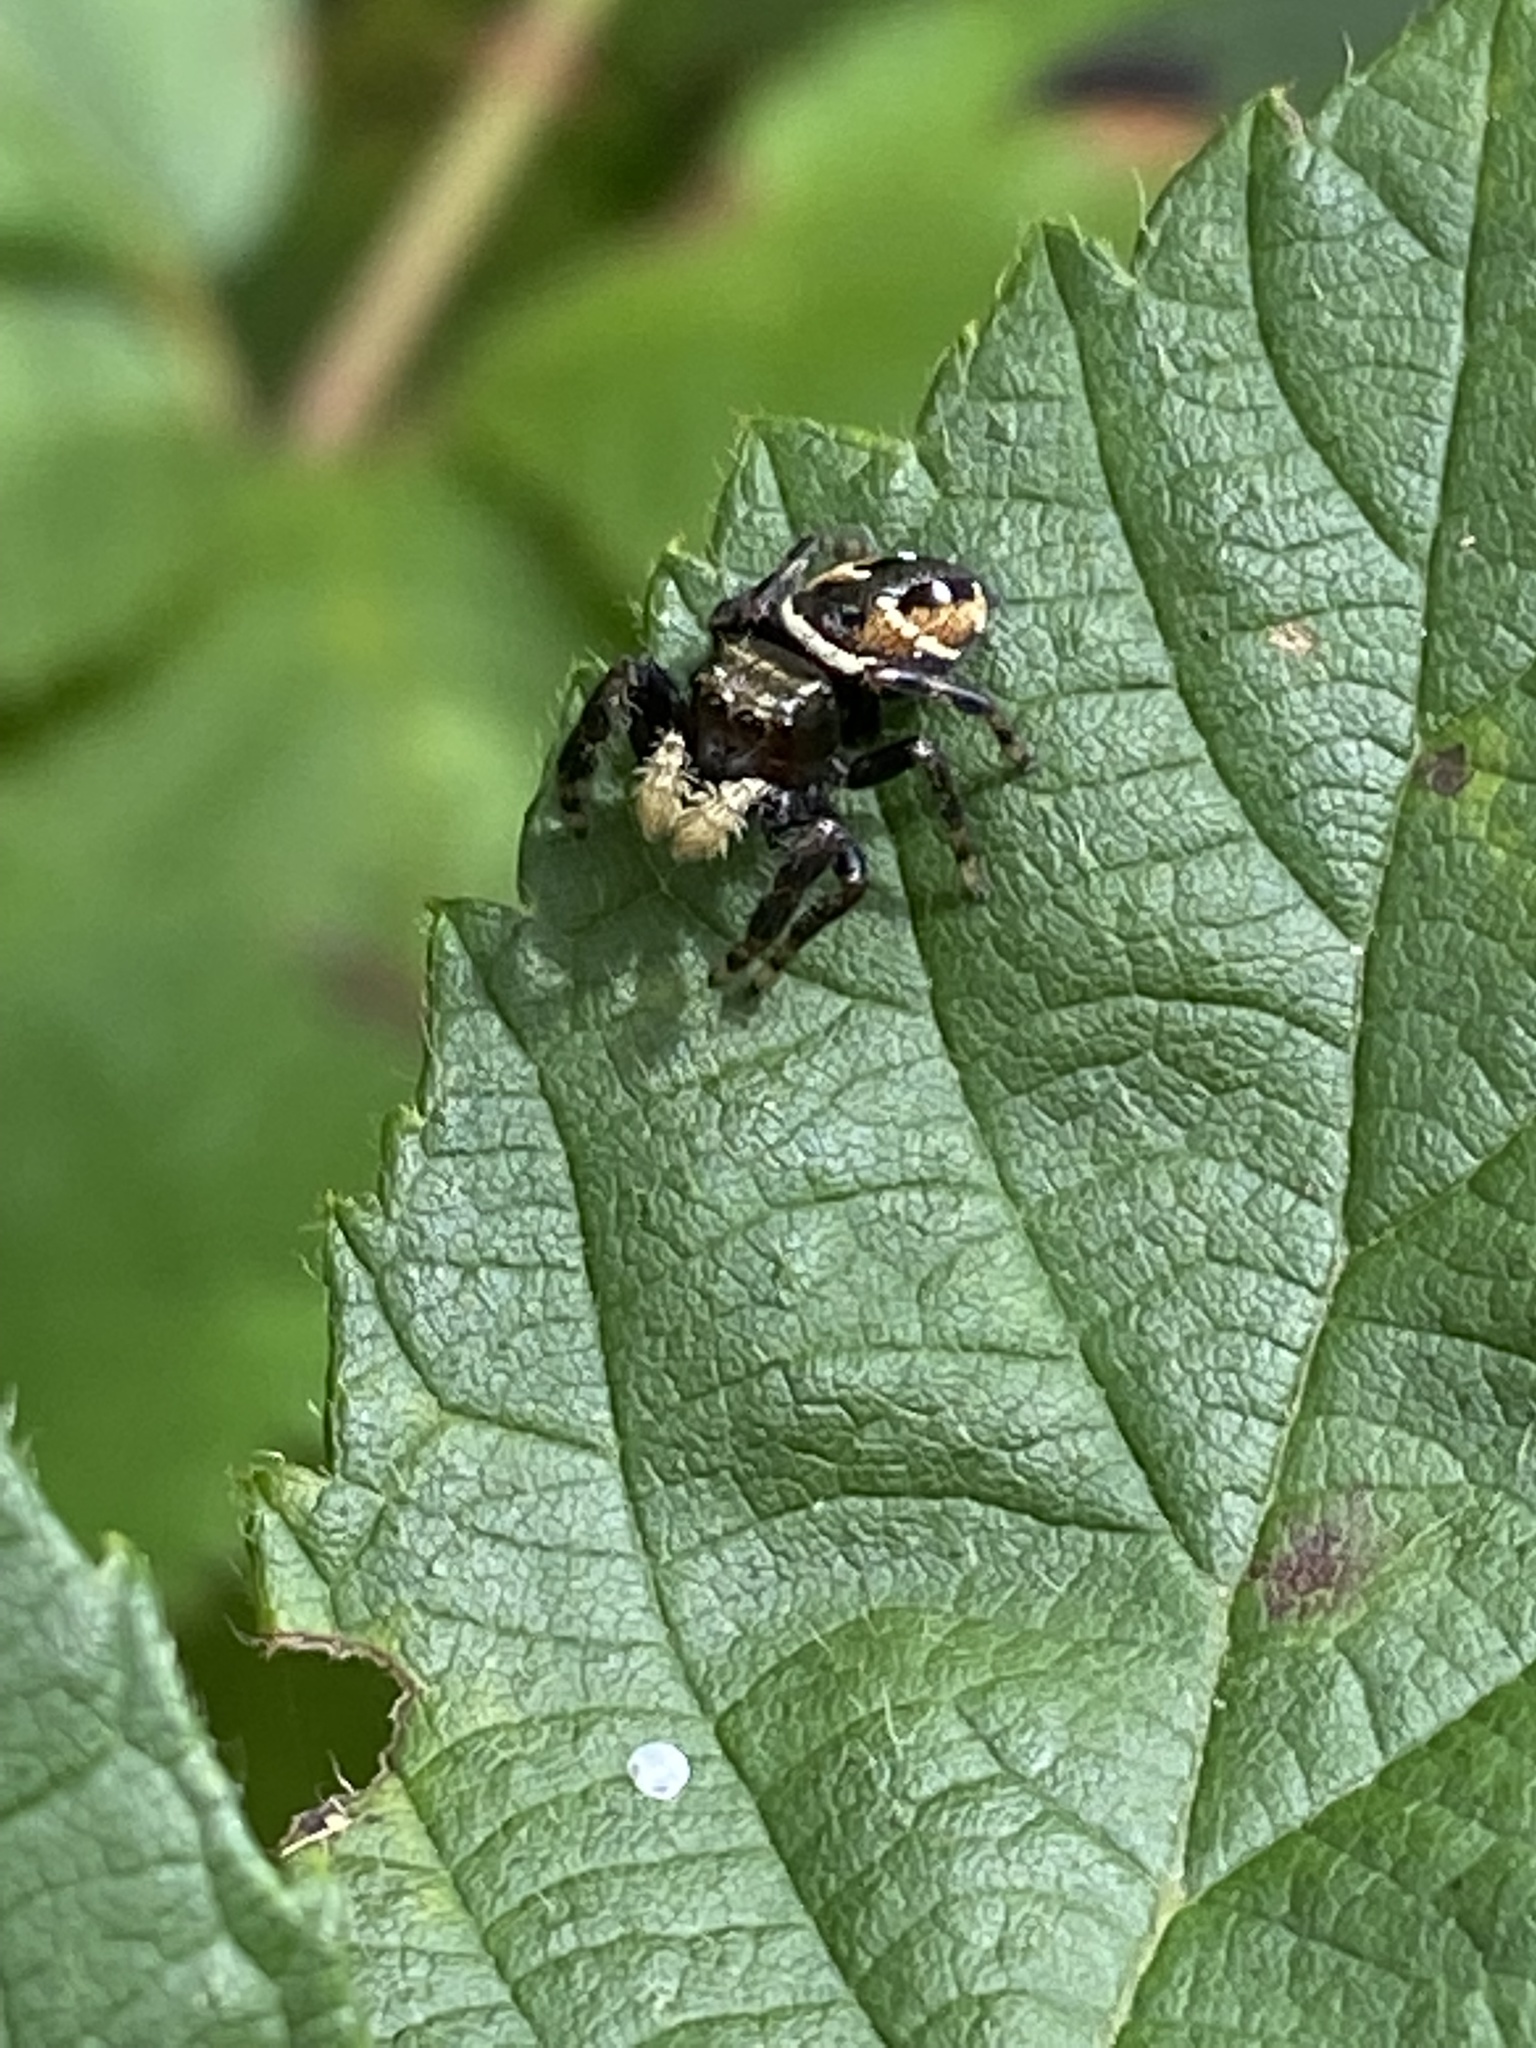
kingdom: Animalia
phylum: Arthropoda
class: Arachnida
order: Araneae
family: Salticidae
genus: Phidippus
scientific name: Phidippus clarus
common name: Brilliant jumping spider
